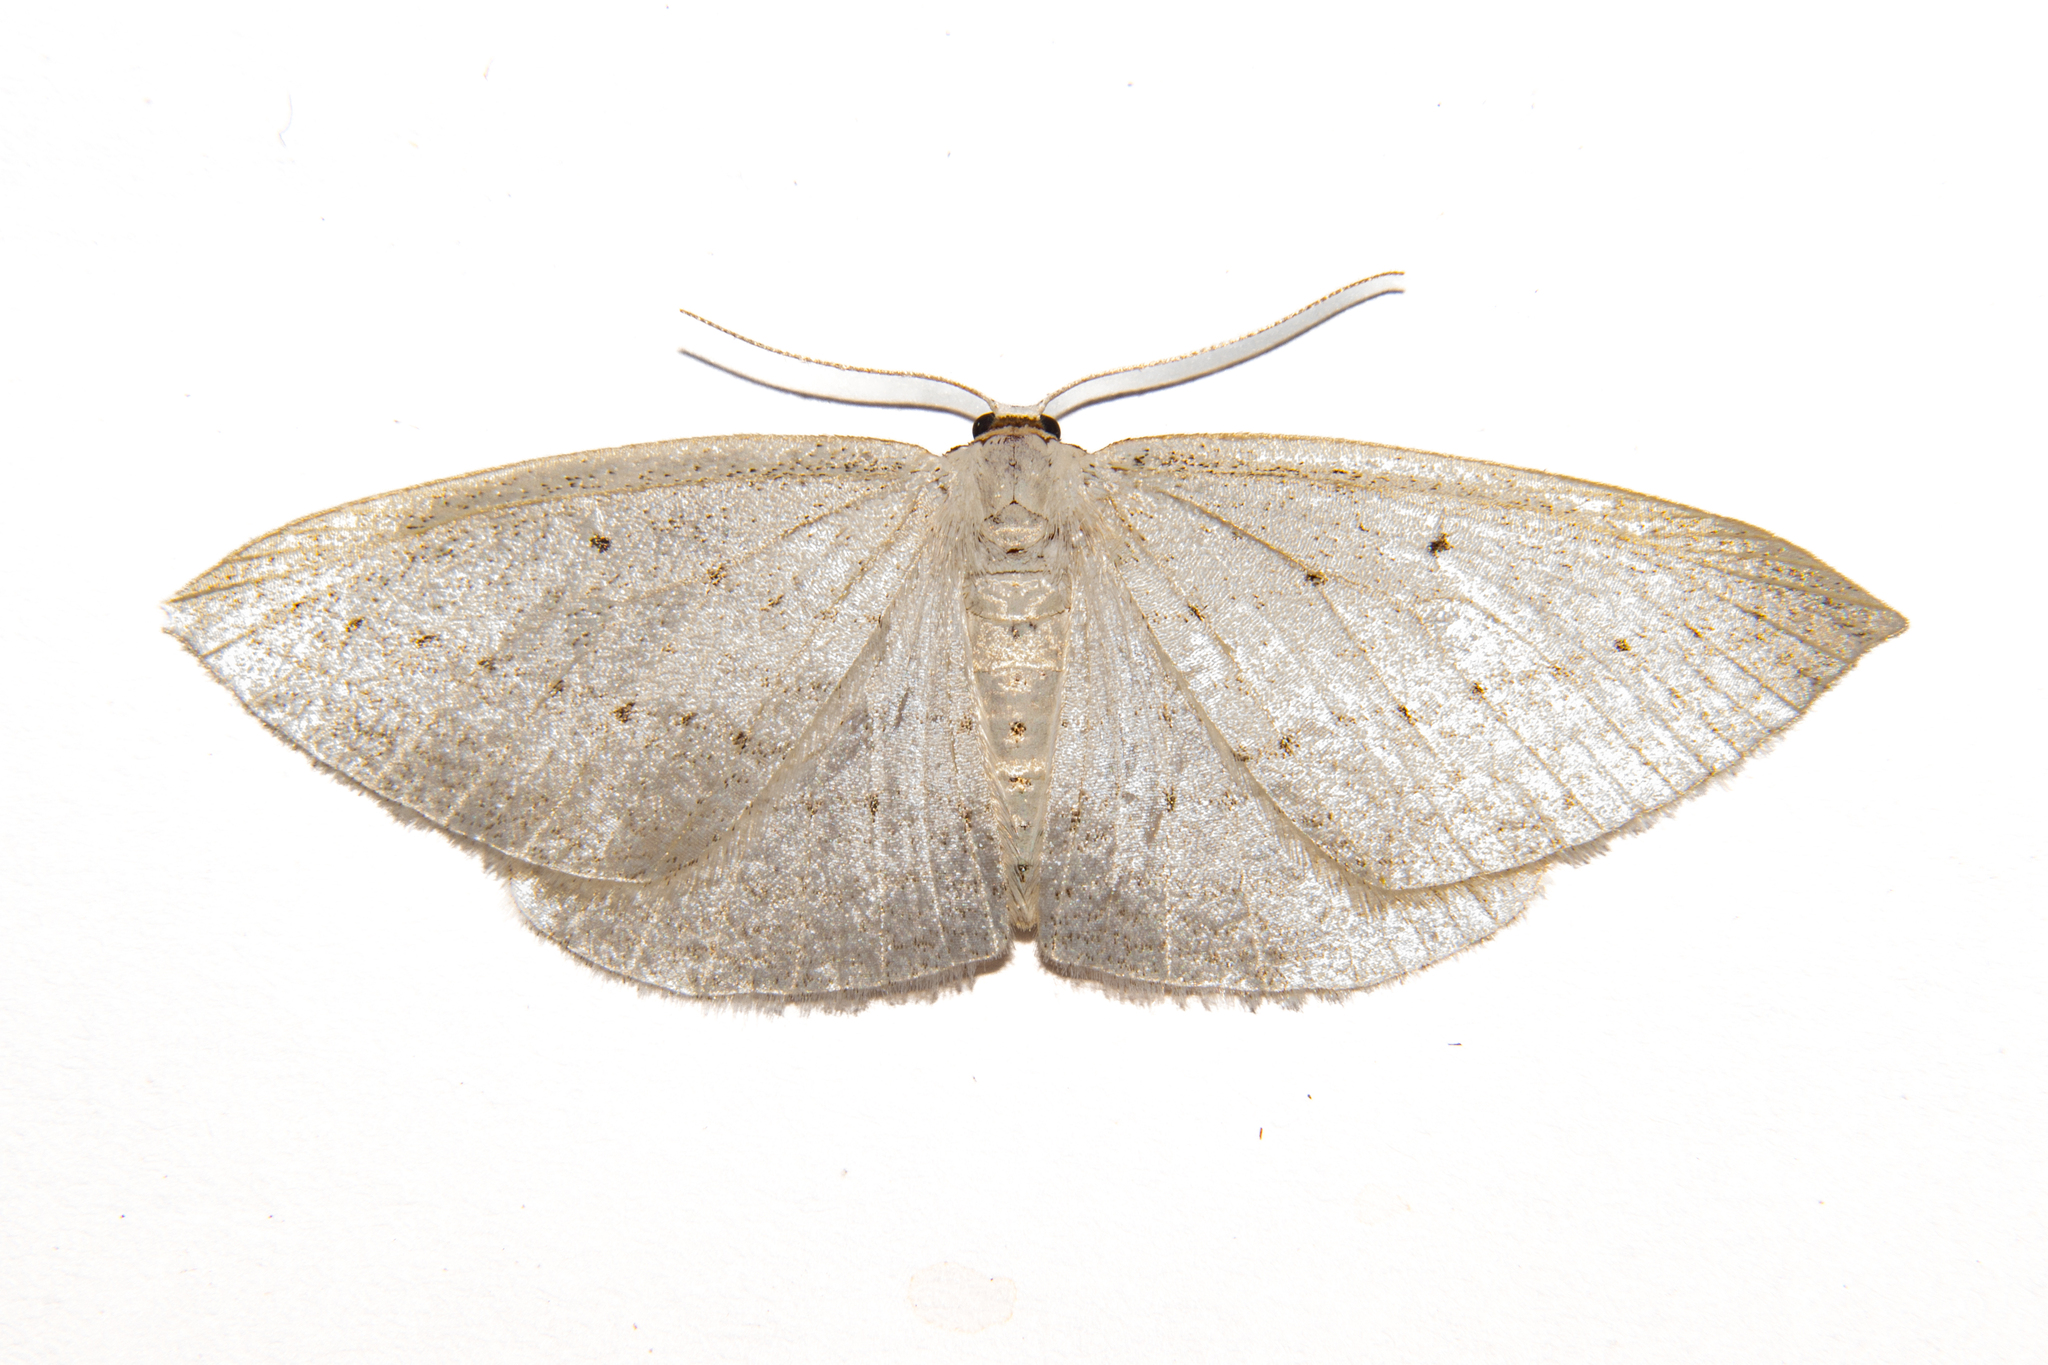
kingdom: Animalia
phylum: Arthropoda
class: Insecta
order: Lepidoptera
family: Geometridae
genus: Orthoclydon
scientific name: Orthoclydon praefectata
